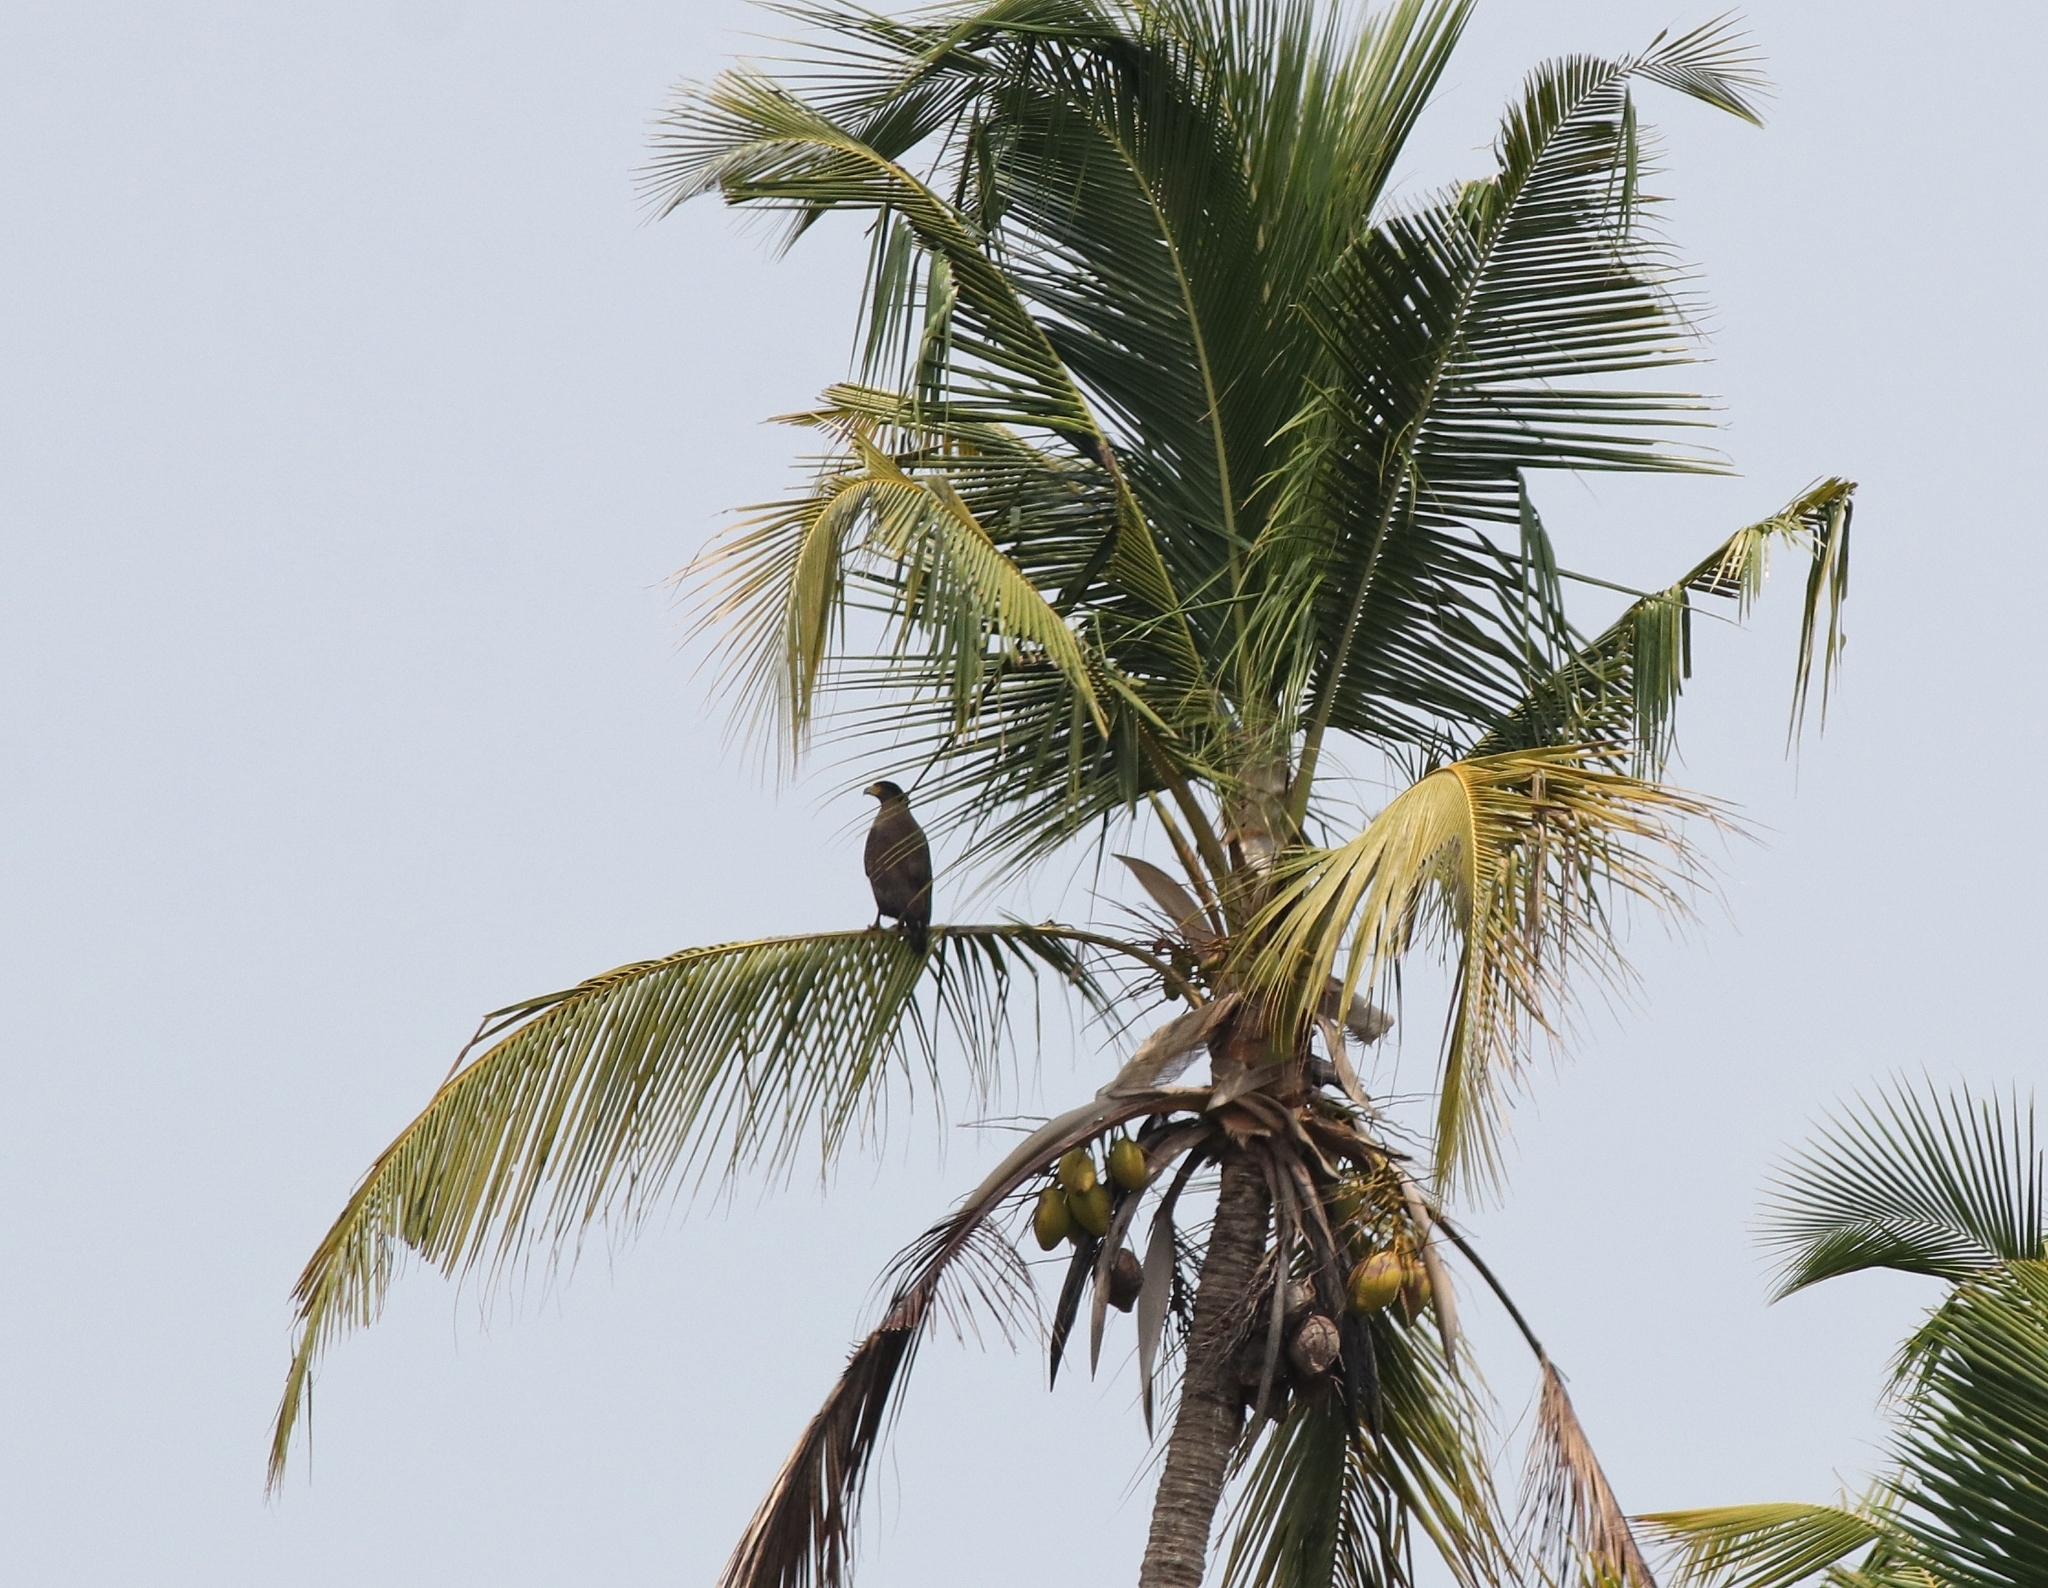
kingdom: Animalia
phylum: Chordata
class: Aves
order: Accipitriformes
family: Accipitridae
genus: Spilornis
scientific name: Spilornis cheela
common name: Crested serpent eagle
